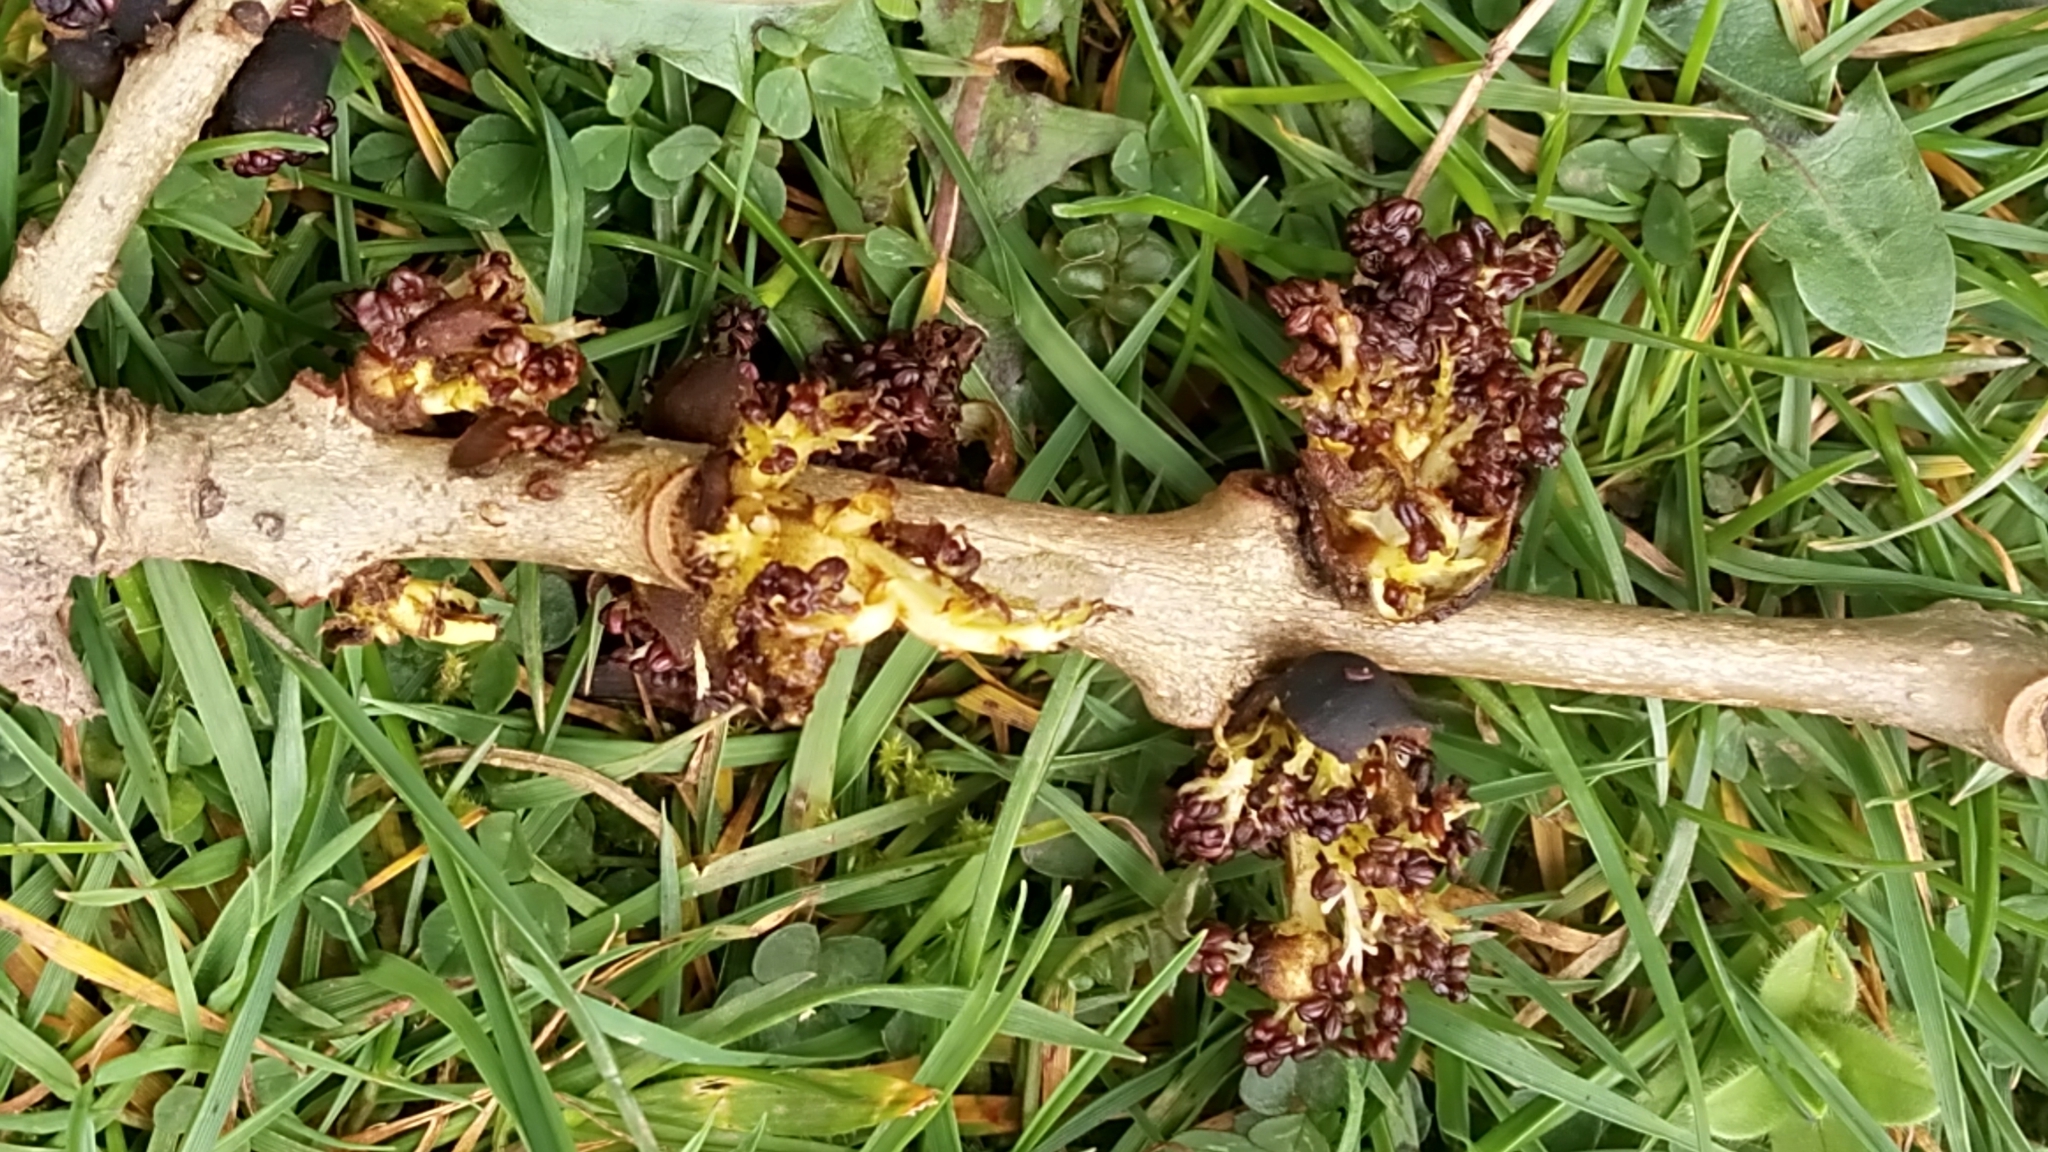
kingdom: Plantae
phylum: Tracheophyta
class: Magnoliopsida
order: Lamiales
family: Oleaceae
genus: Fraxinus
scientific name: Fraxinus excelsior
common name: European ash
